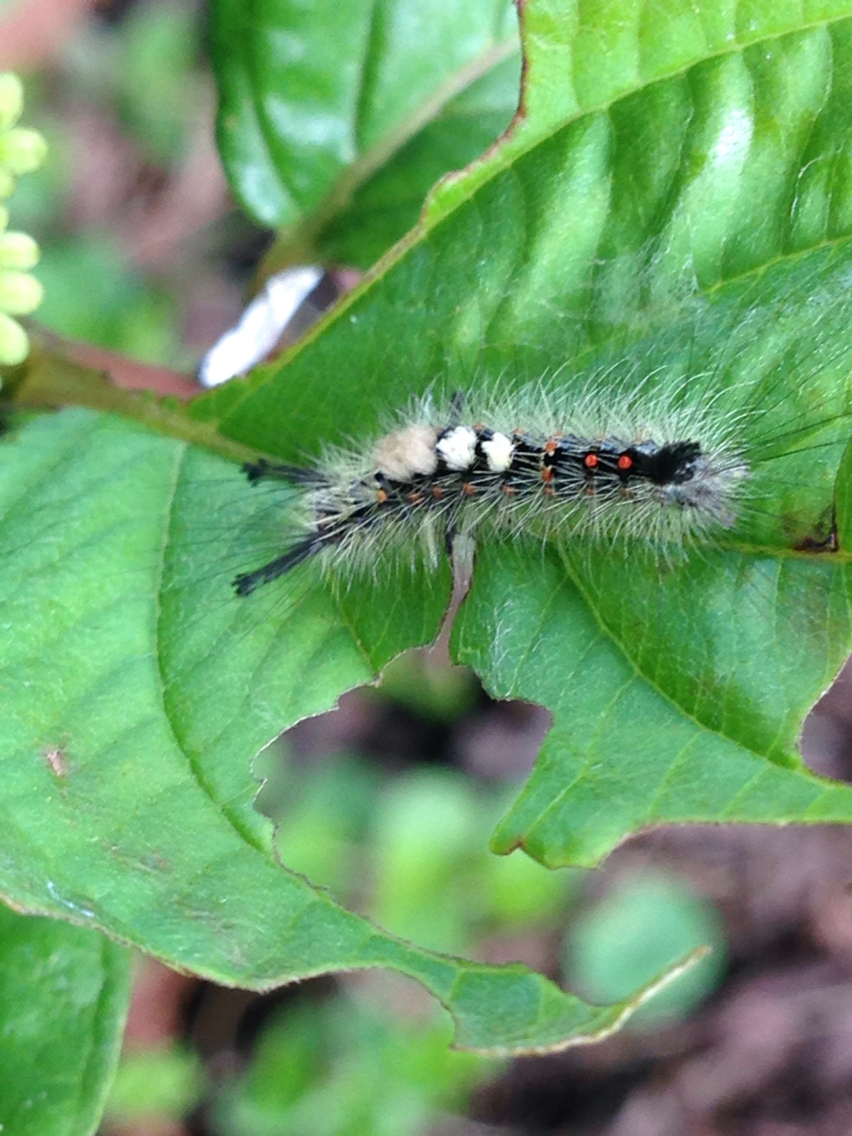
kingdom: Animalia
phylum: Arthropoda
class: Insecta
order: Lepidoptera
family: Erebidae
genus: Orgyia
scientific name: Orgyia antiqua
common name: Vapourer
